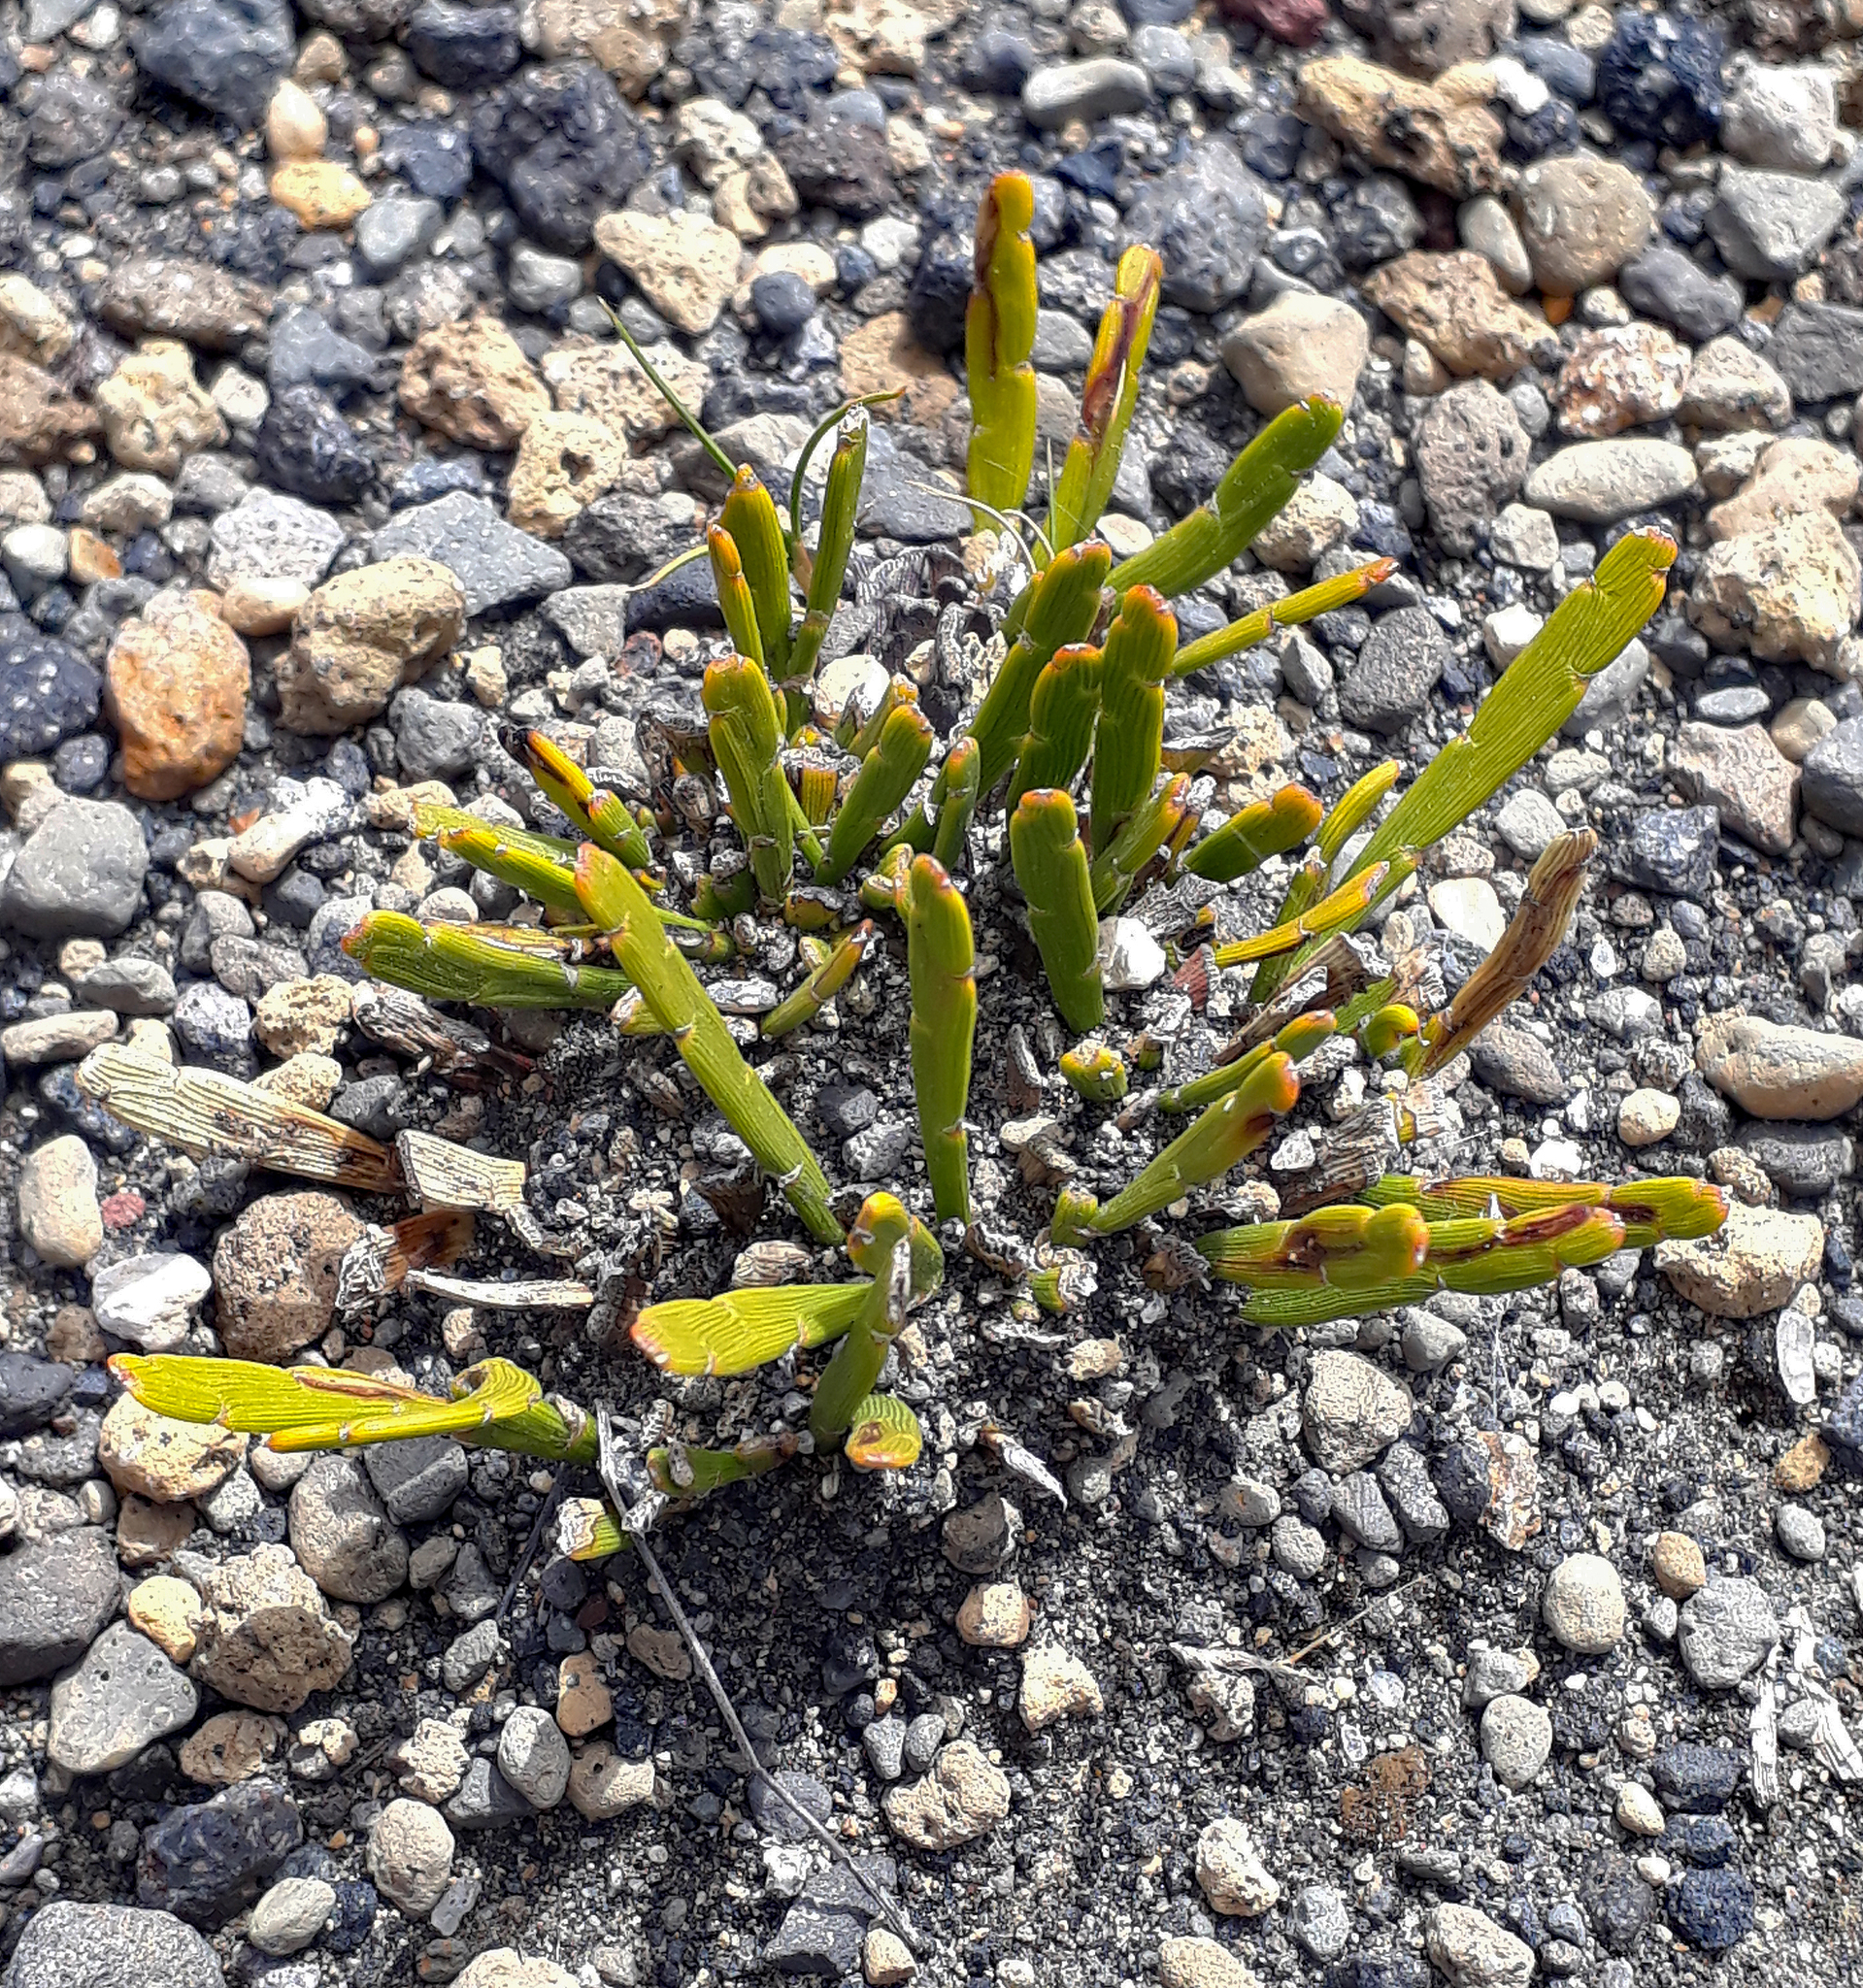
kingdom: Plantae
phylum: Tracheophyta
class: Magnoliopsida
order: Fabales
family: Fabaceae
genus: Carmichaelia
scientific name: Carmichaelia nana
